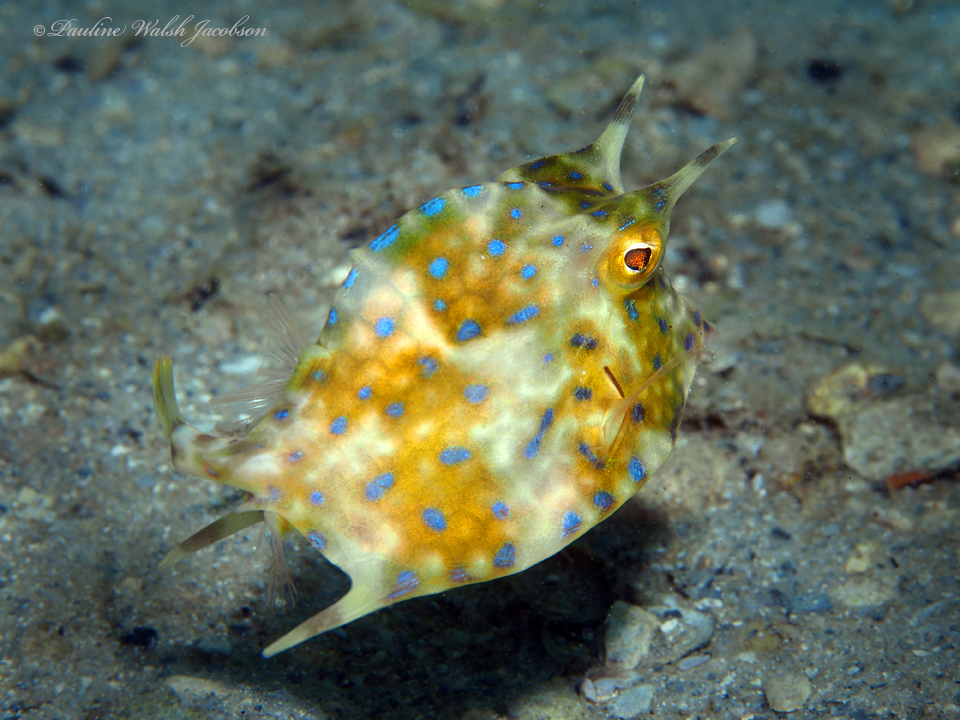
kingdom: Animalia
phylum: Chordata
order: Tetraodontiformes
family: Ostraciidae
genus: Acanthostracion
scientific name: Acanthostracion quadricornis
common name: Scrawled cowfish
